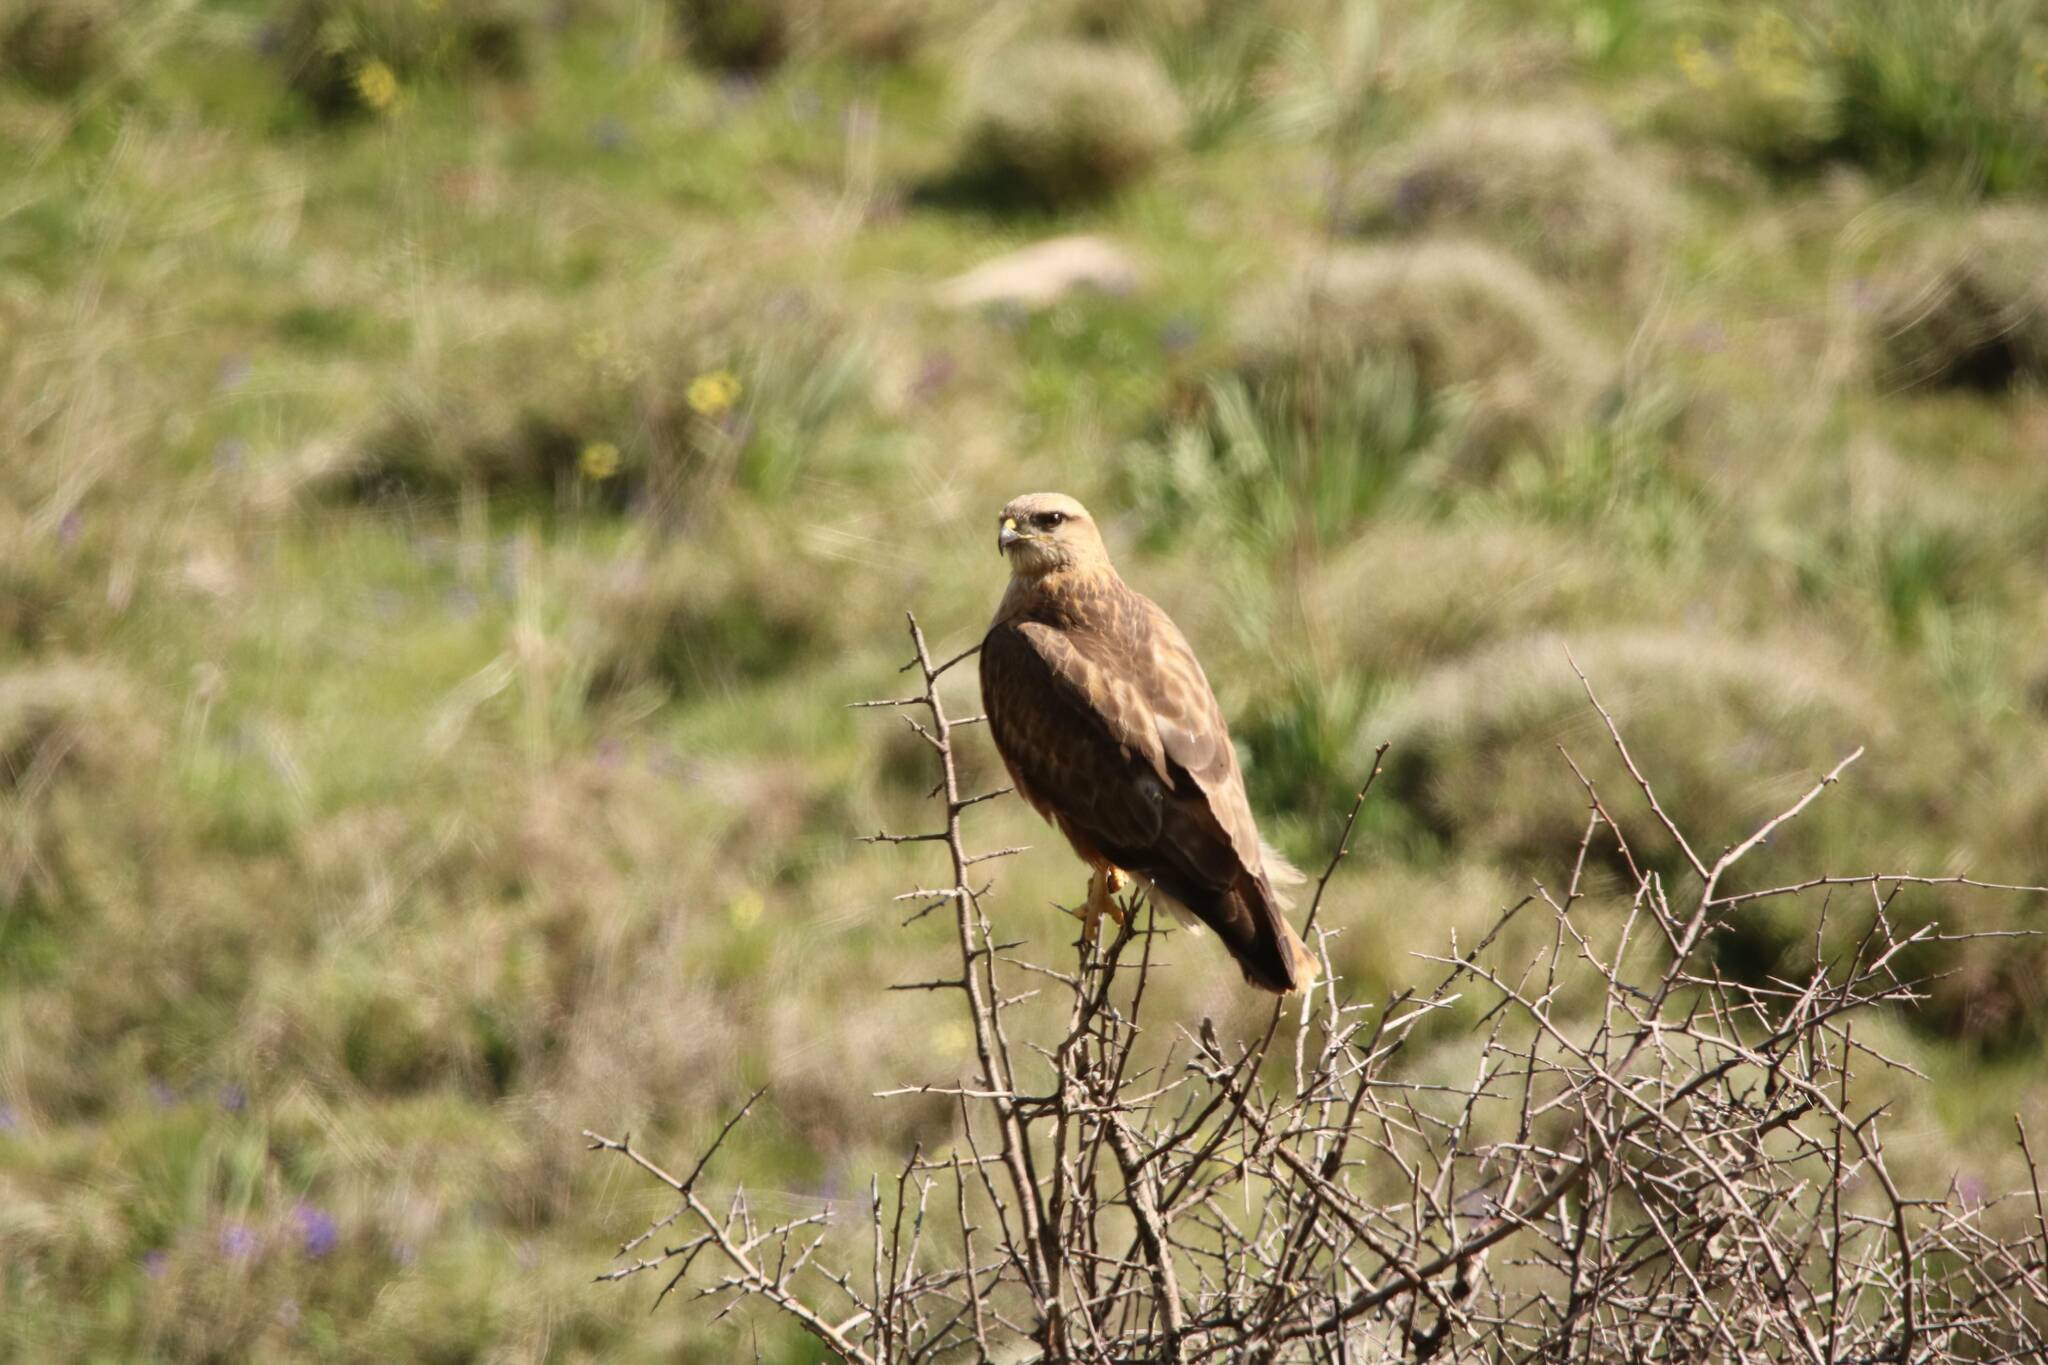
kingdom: Animalia
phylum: Chordata
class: Aves
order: Accipitriformes
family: Accipitridae
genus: Buteo
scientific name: Buteo rufinus
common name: Long-legged buzzard
